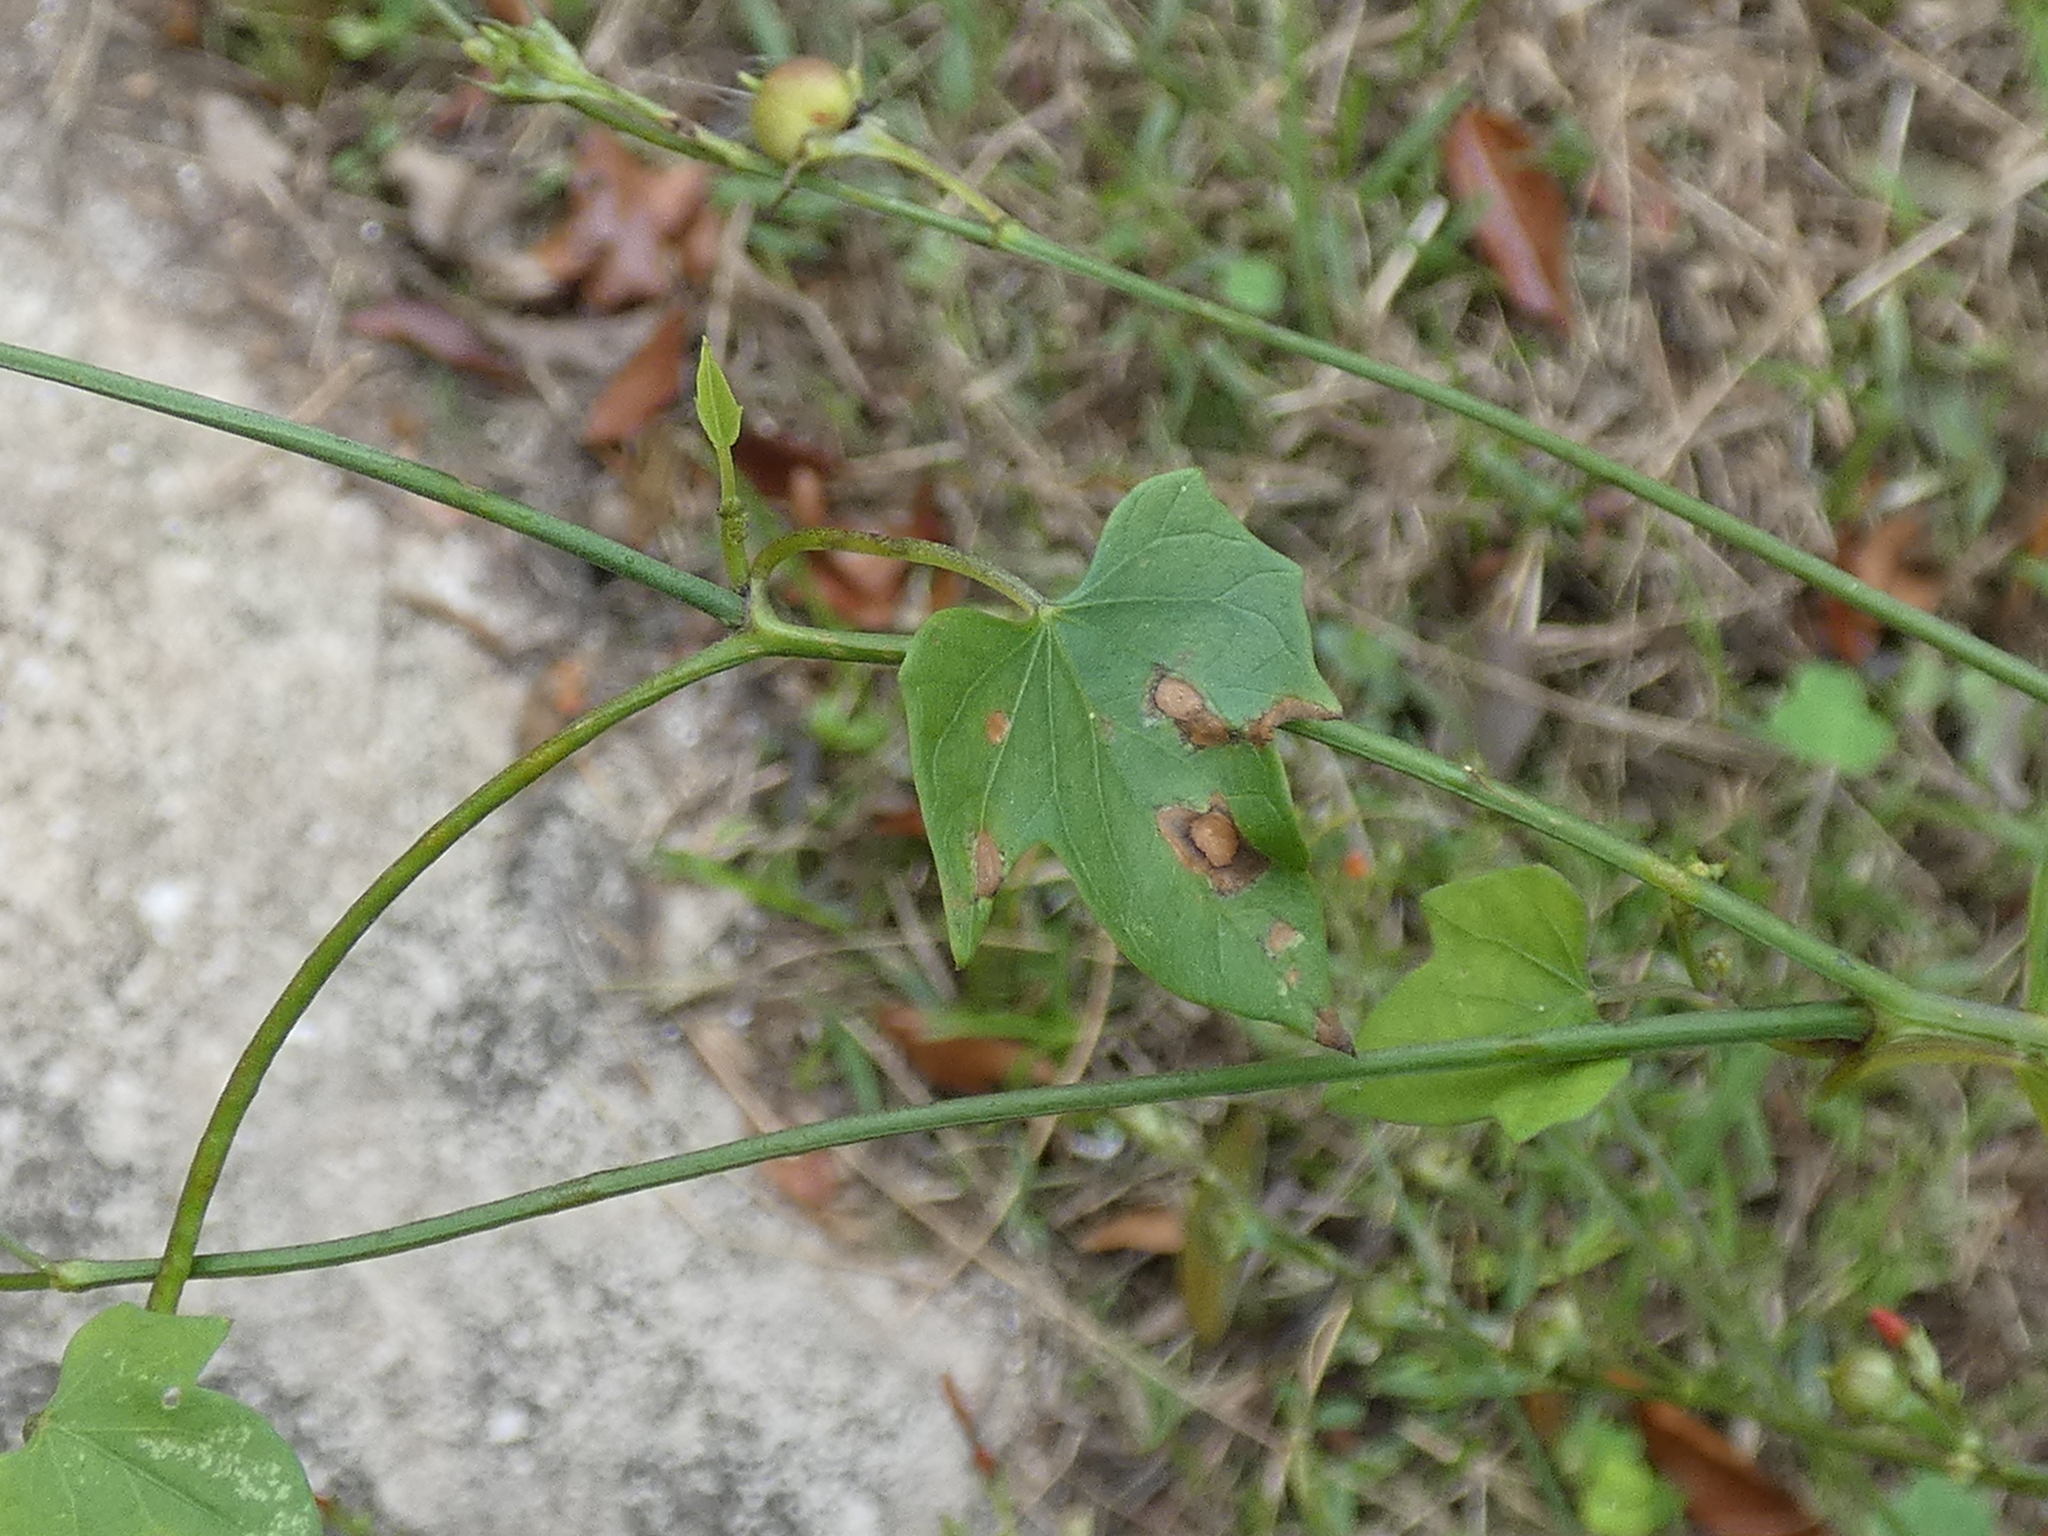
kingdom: Plantae
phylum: Tracheophyta
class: Magnoliopsida
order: Solanales
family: Convolvulaceae
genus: Ipomoea
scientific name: Ipomoea hederifolia
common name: Ivy-leaf morning-glory
